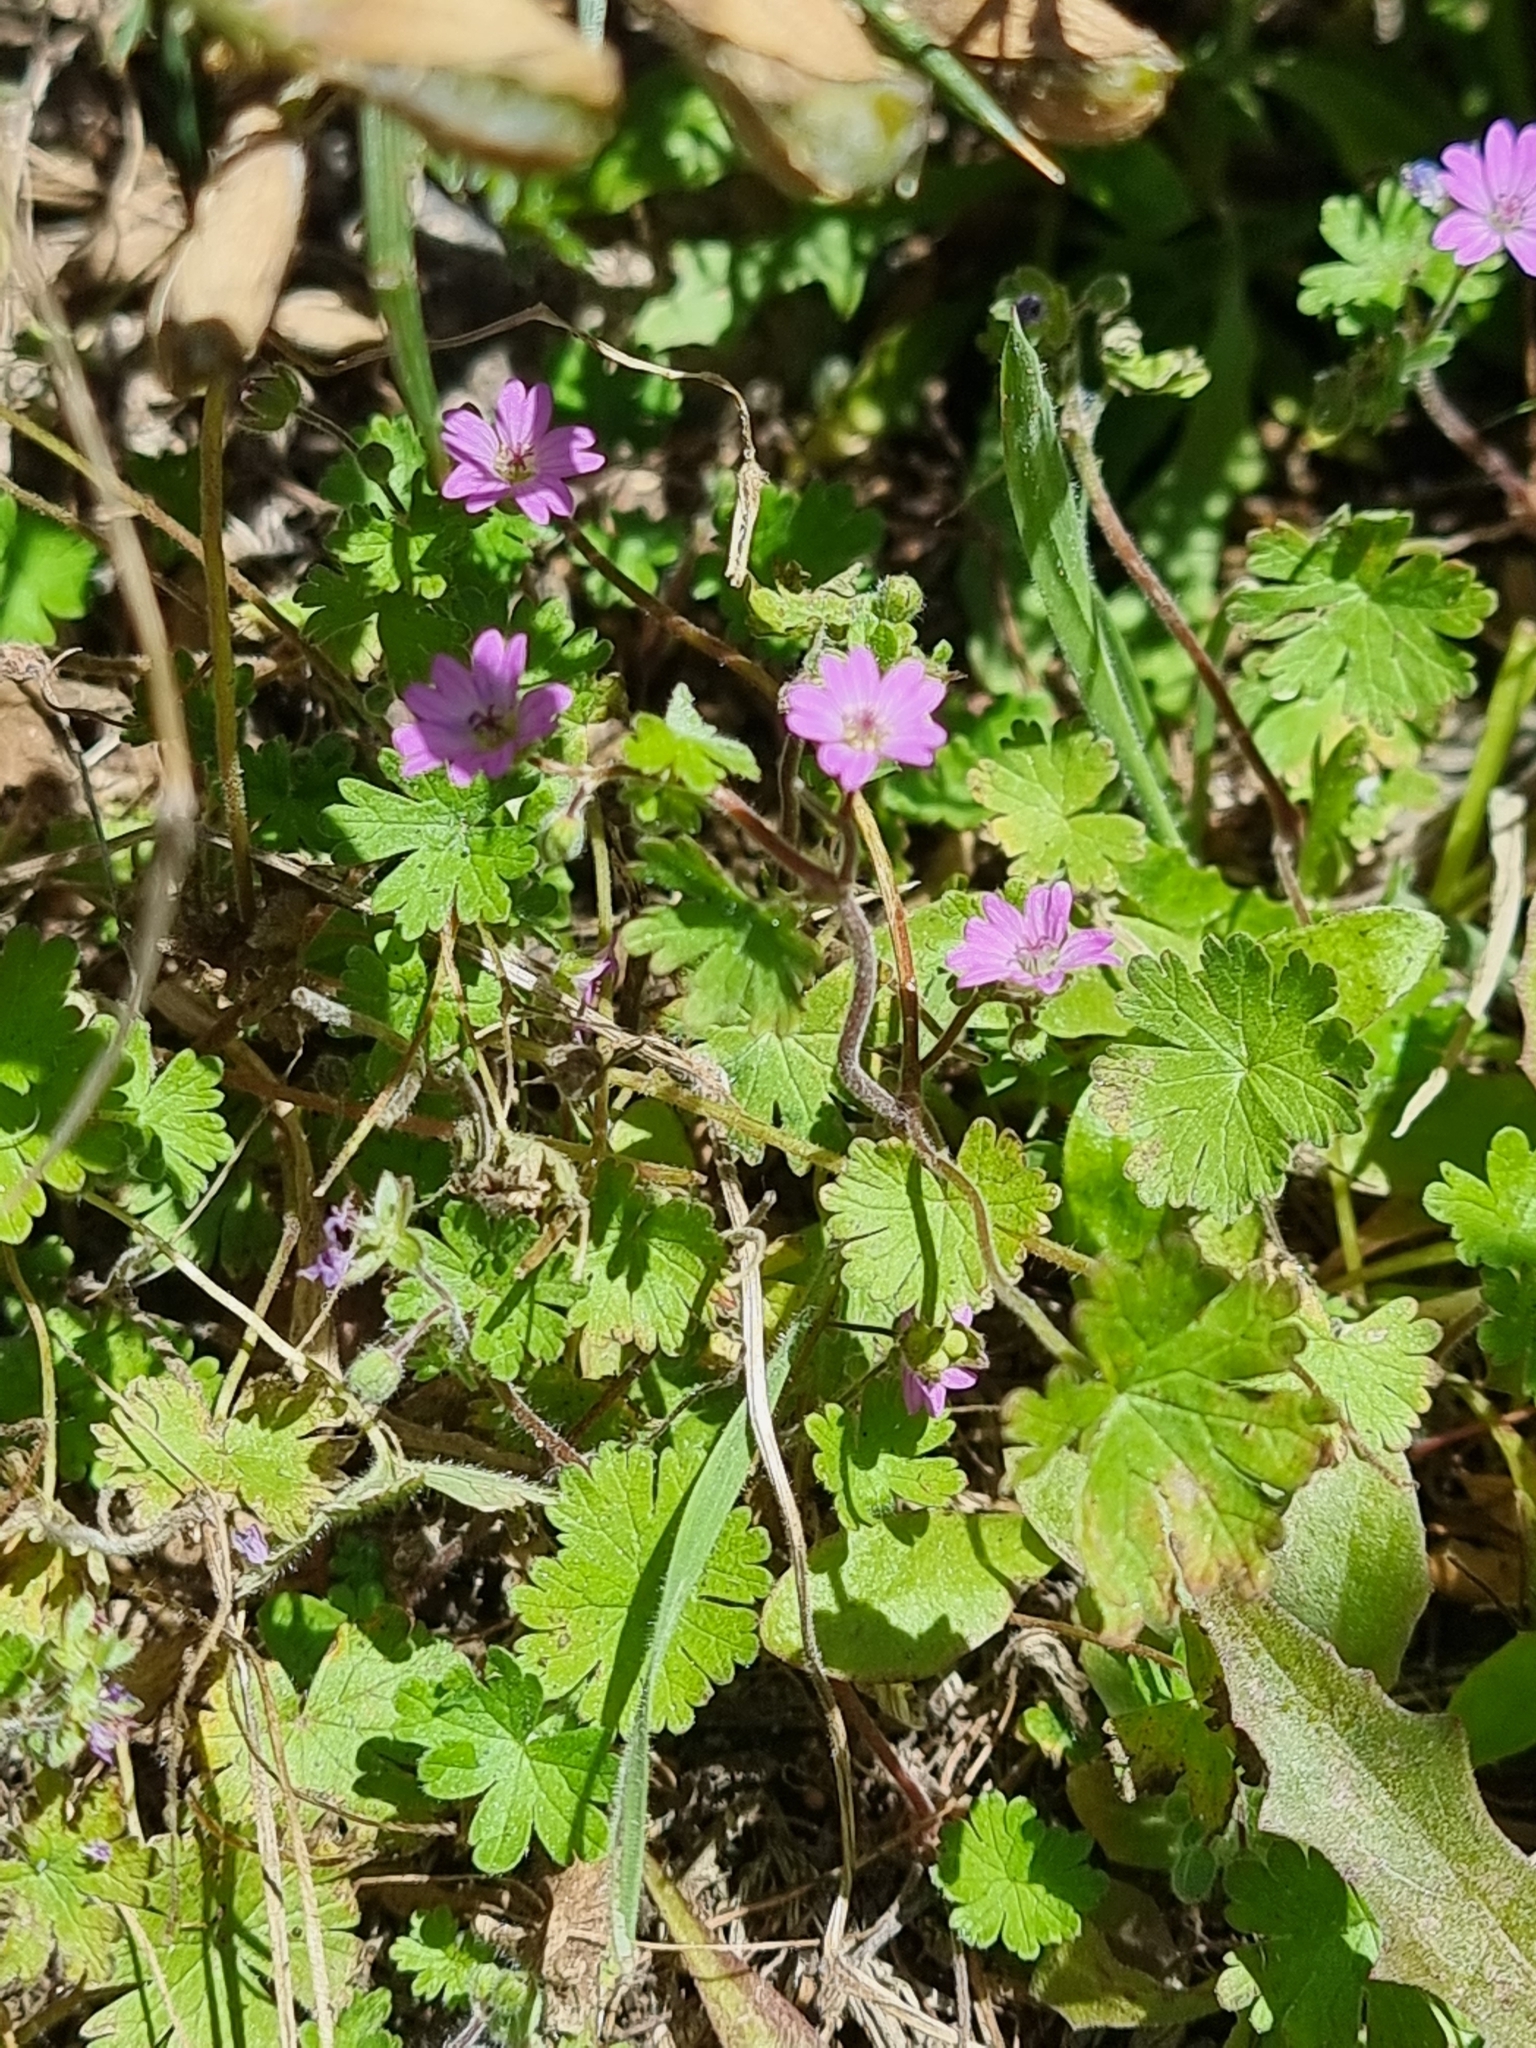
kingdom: Plantae
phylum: Tracheophyta
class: Magnoliopsida
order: Geraniales
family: Geraniaceae
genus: Geranium
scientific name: Geranium molle
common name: Dove's-foot crane's-bill
